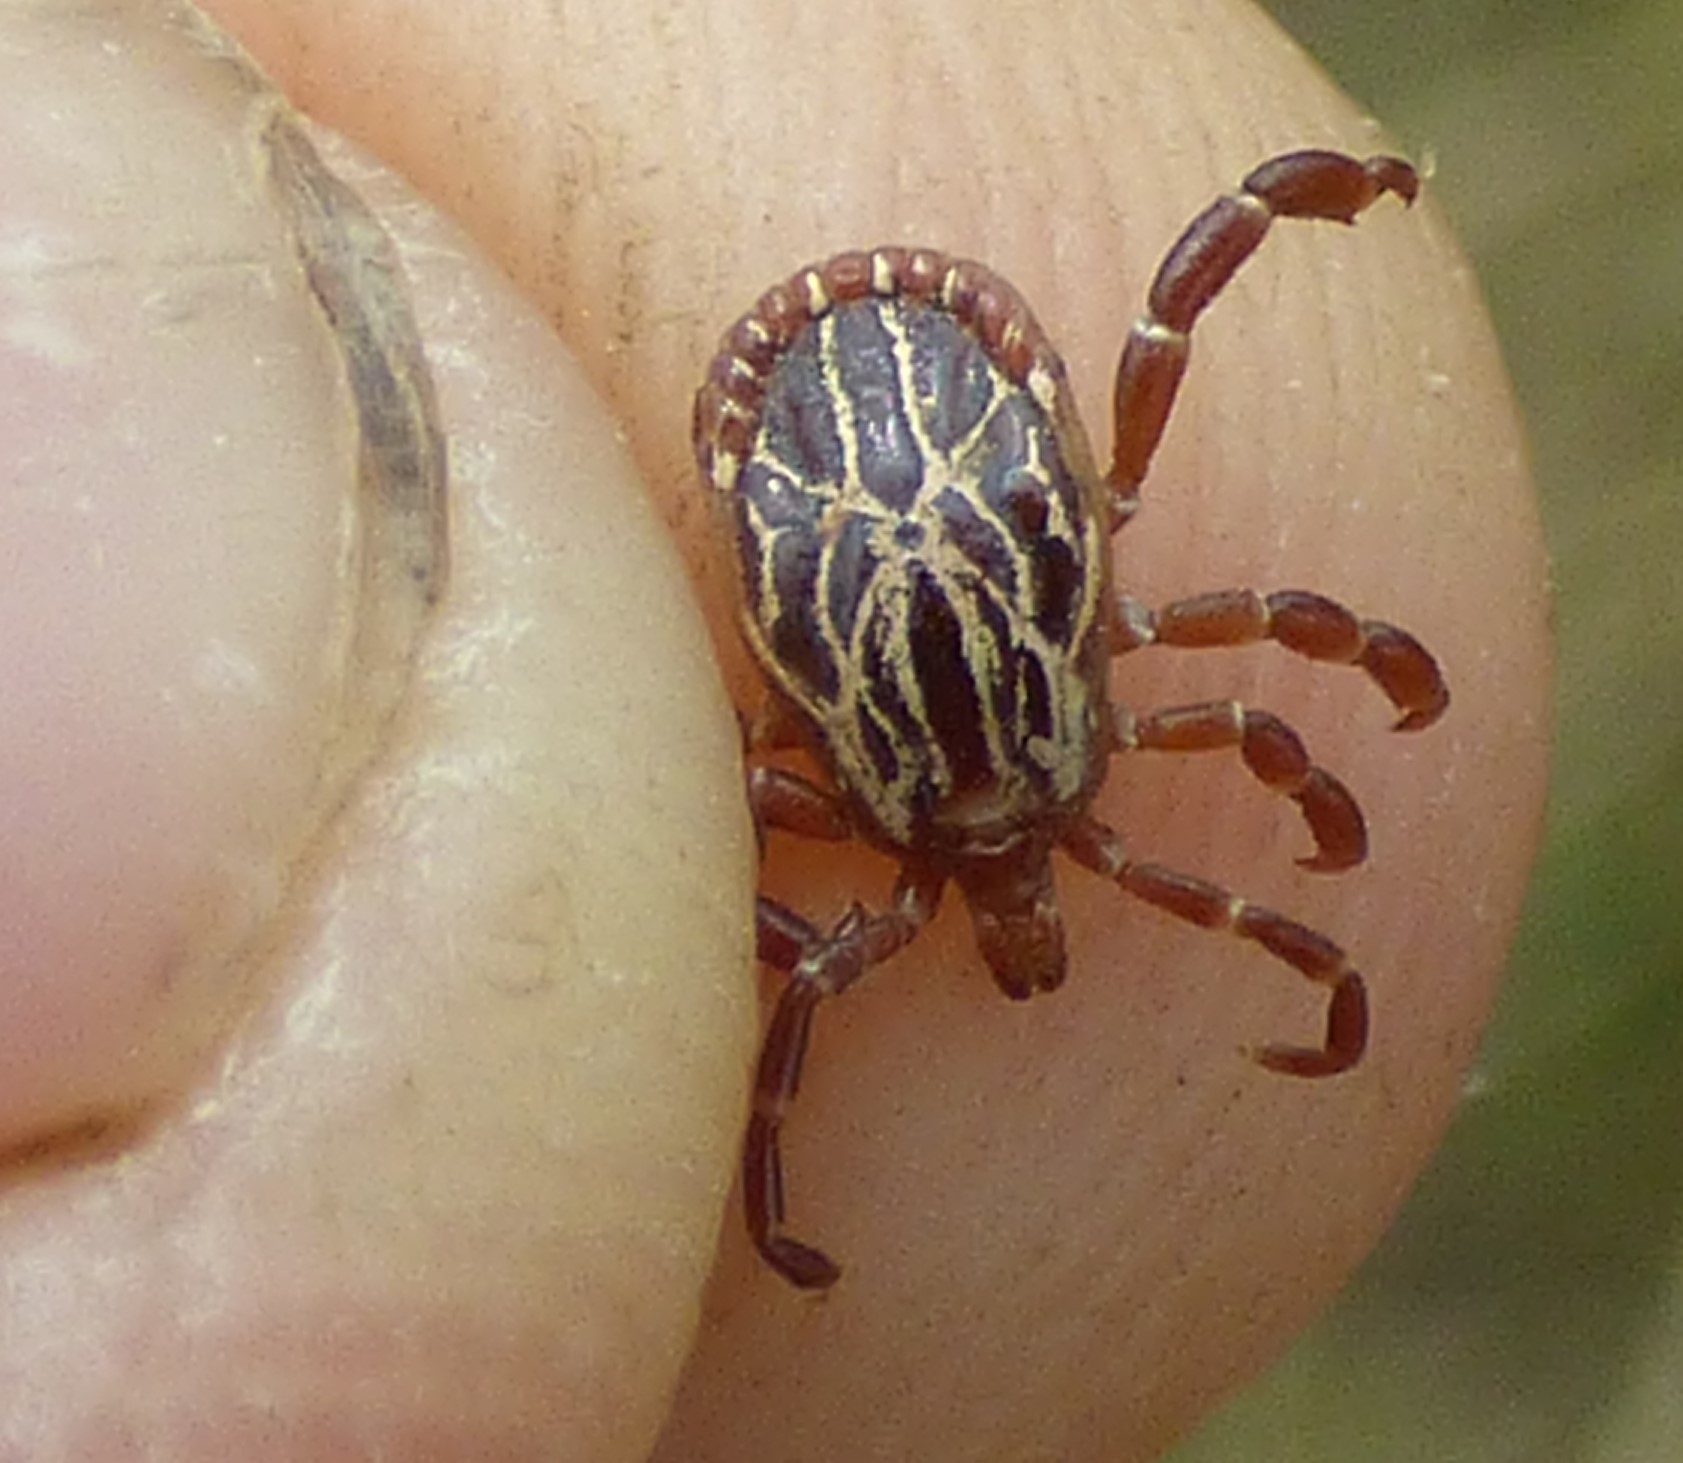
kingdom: Animalia
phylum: Arthropoda
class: Arachnida
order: Ixodida
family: Ixodidae
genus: Amblyomma
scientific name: Amblyomma maculatum
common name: Gulf coast tick
